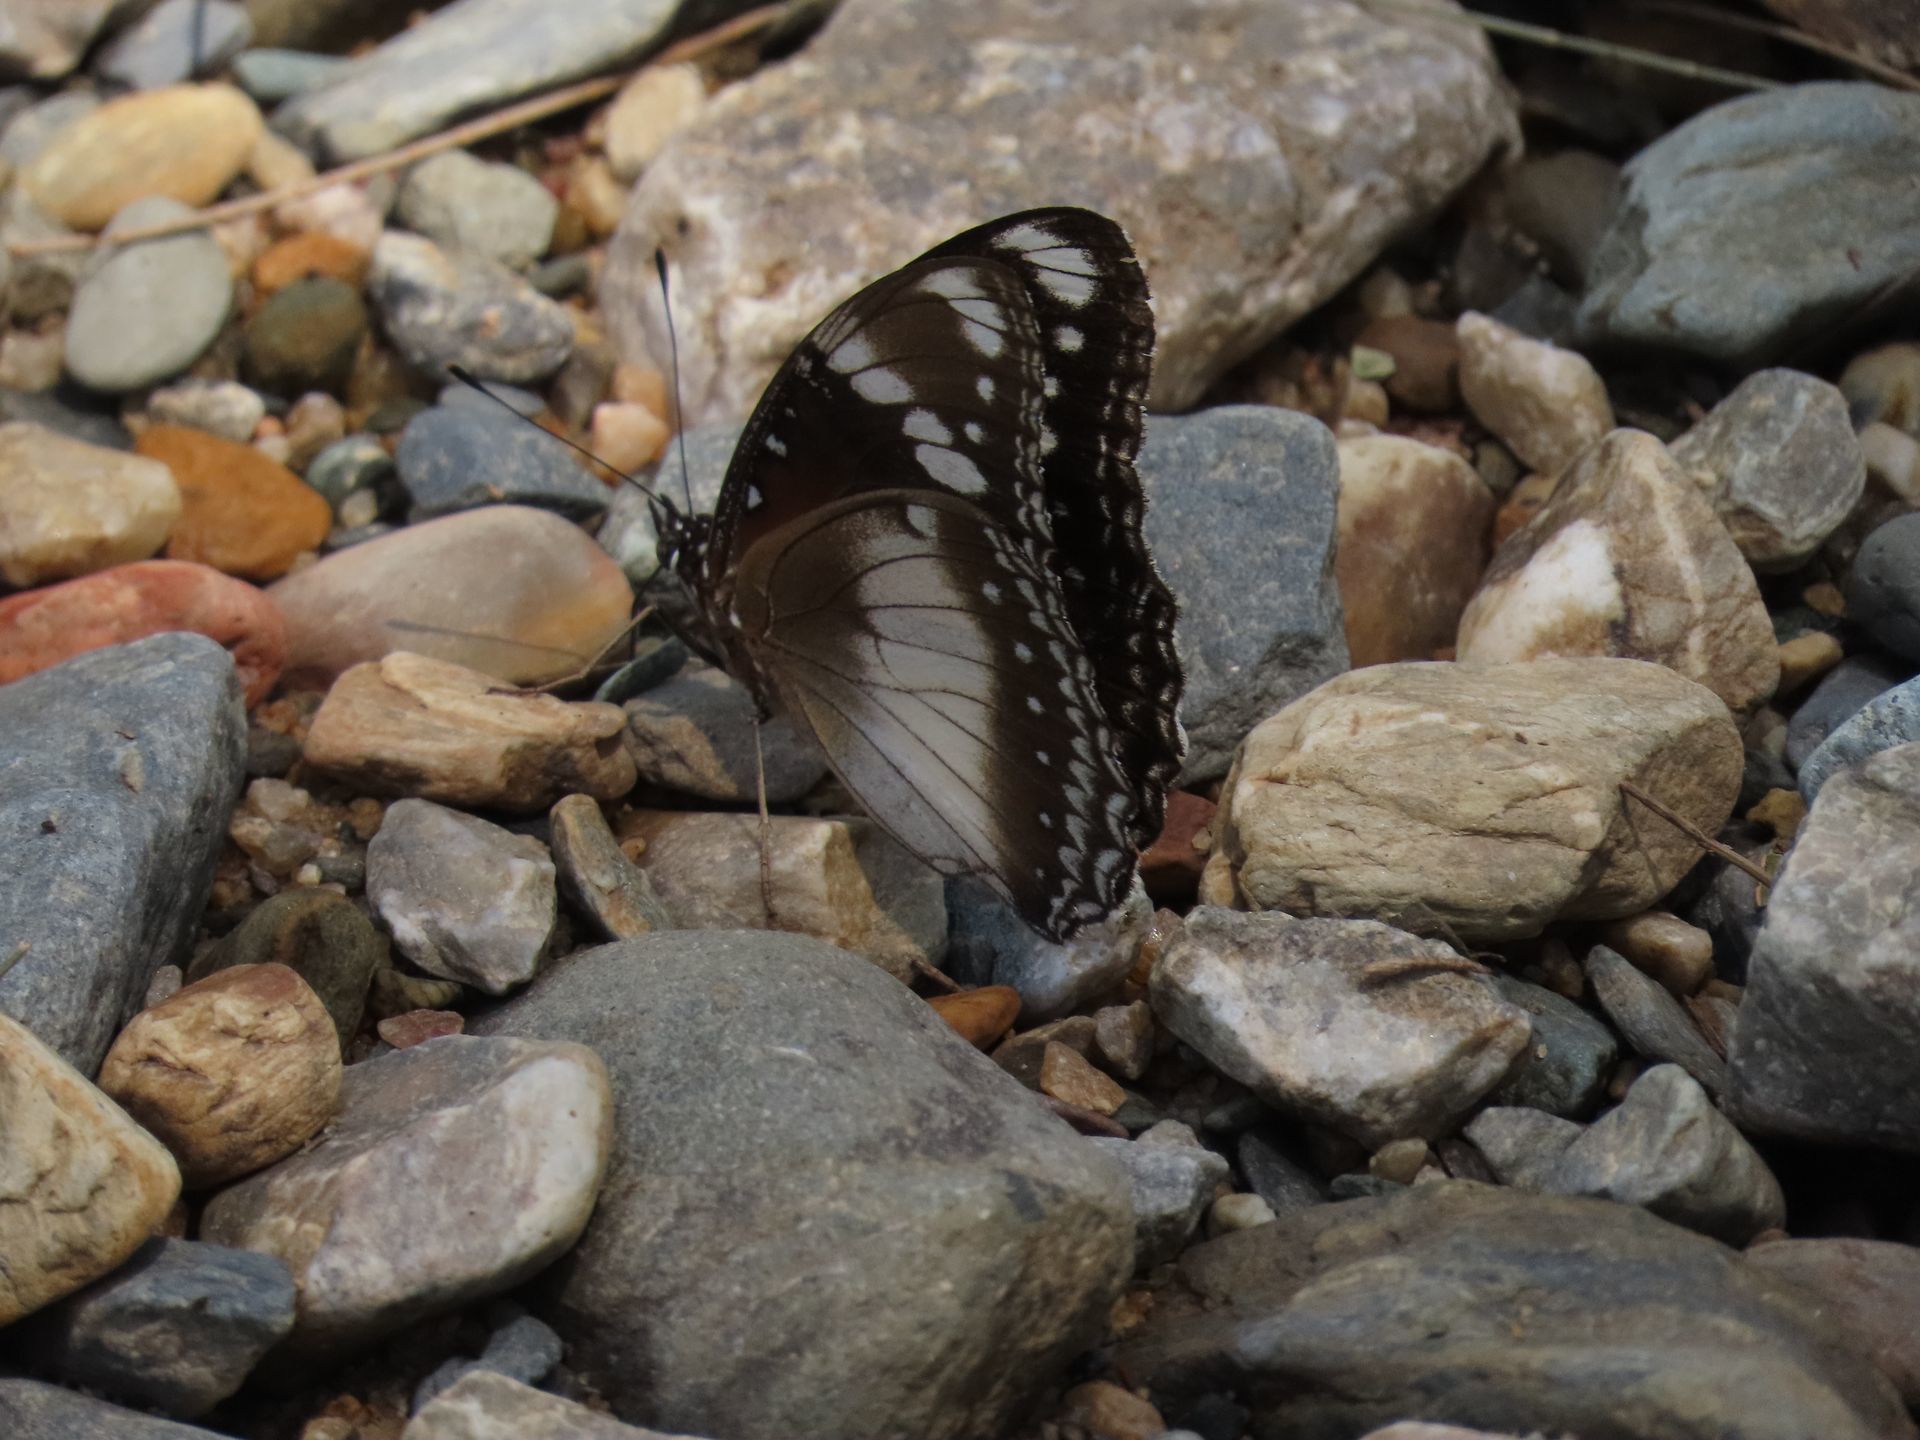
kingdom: Animalia
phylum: Arthropoda
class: Insecta
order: Lepidoptera
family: Nymphalidae
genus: Hypolimnas
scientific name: Hypolimnas bolina
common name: Great eggfly
